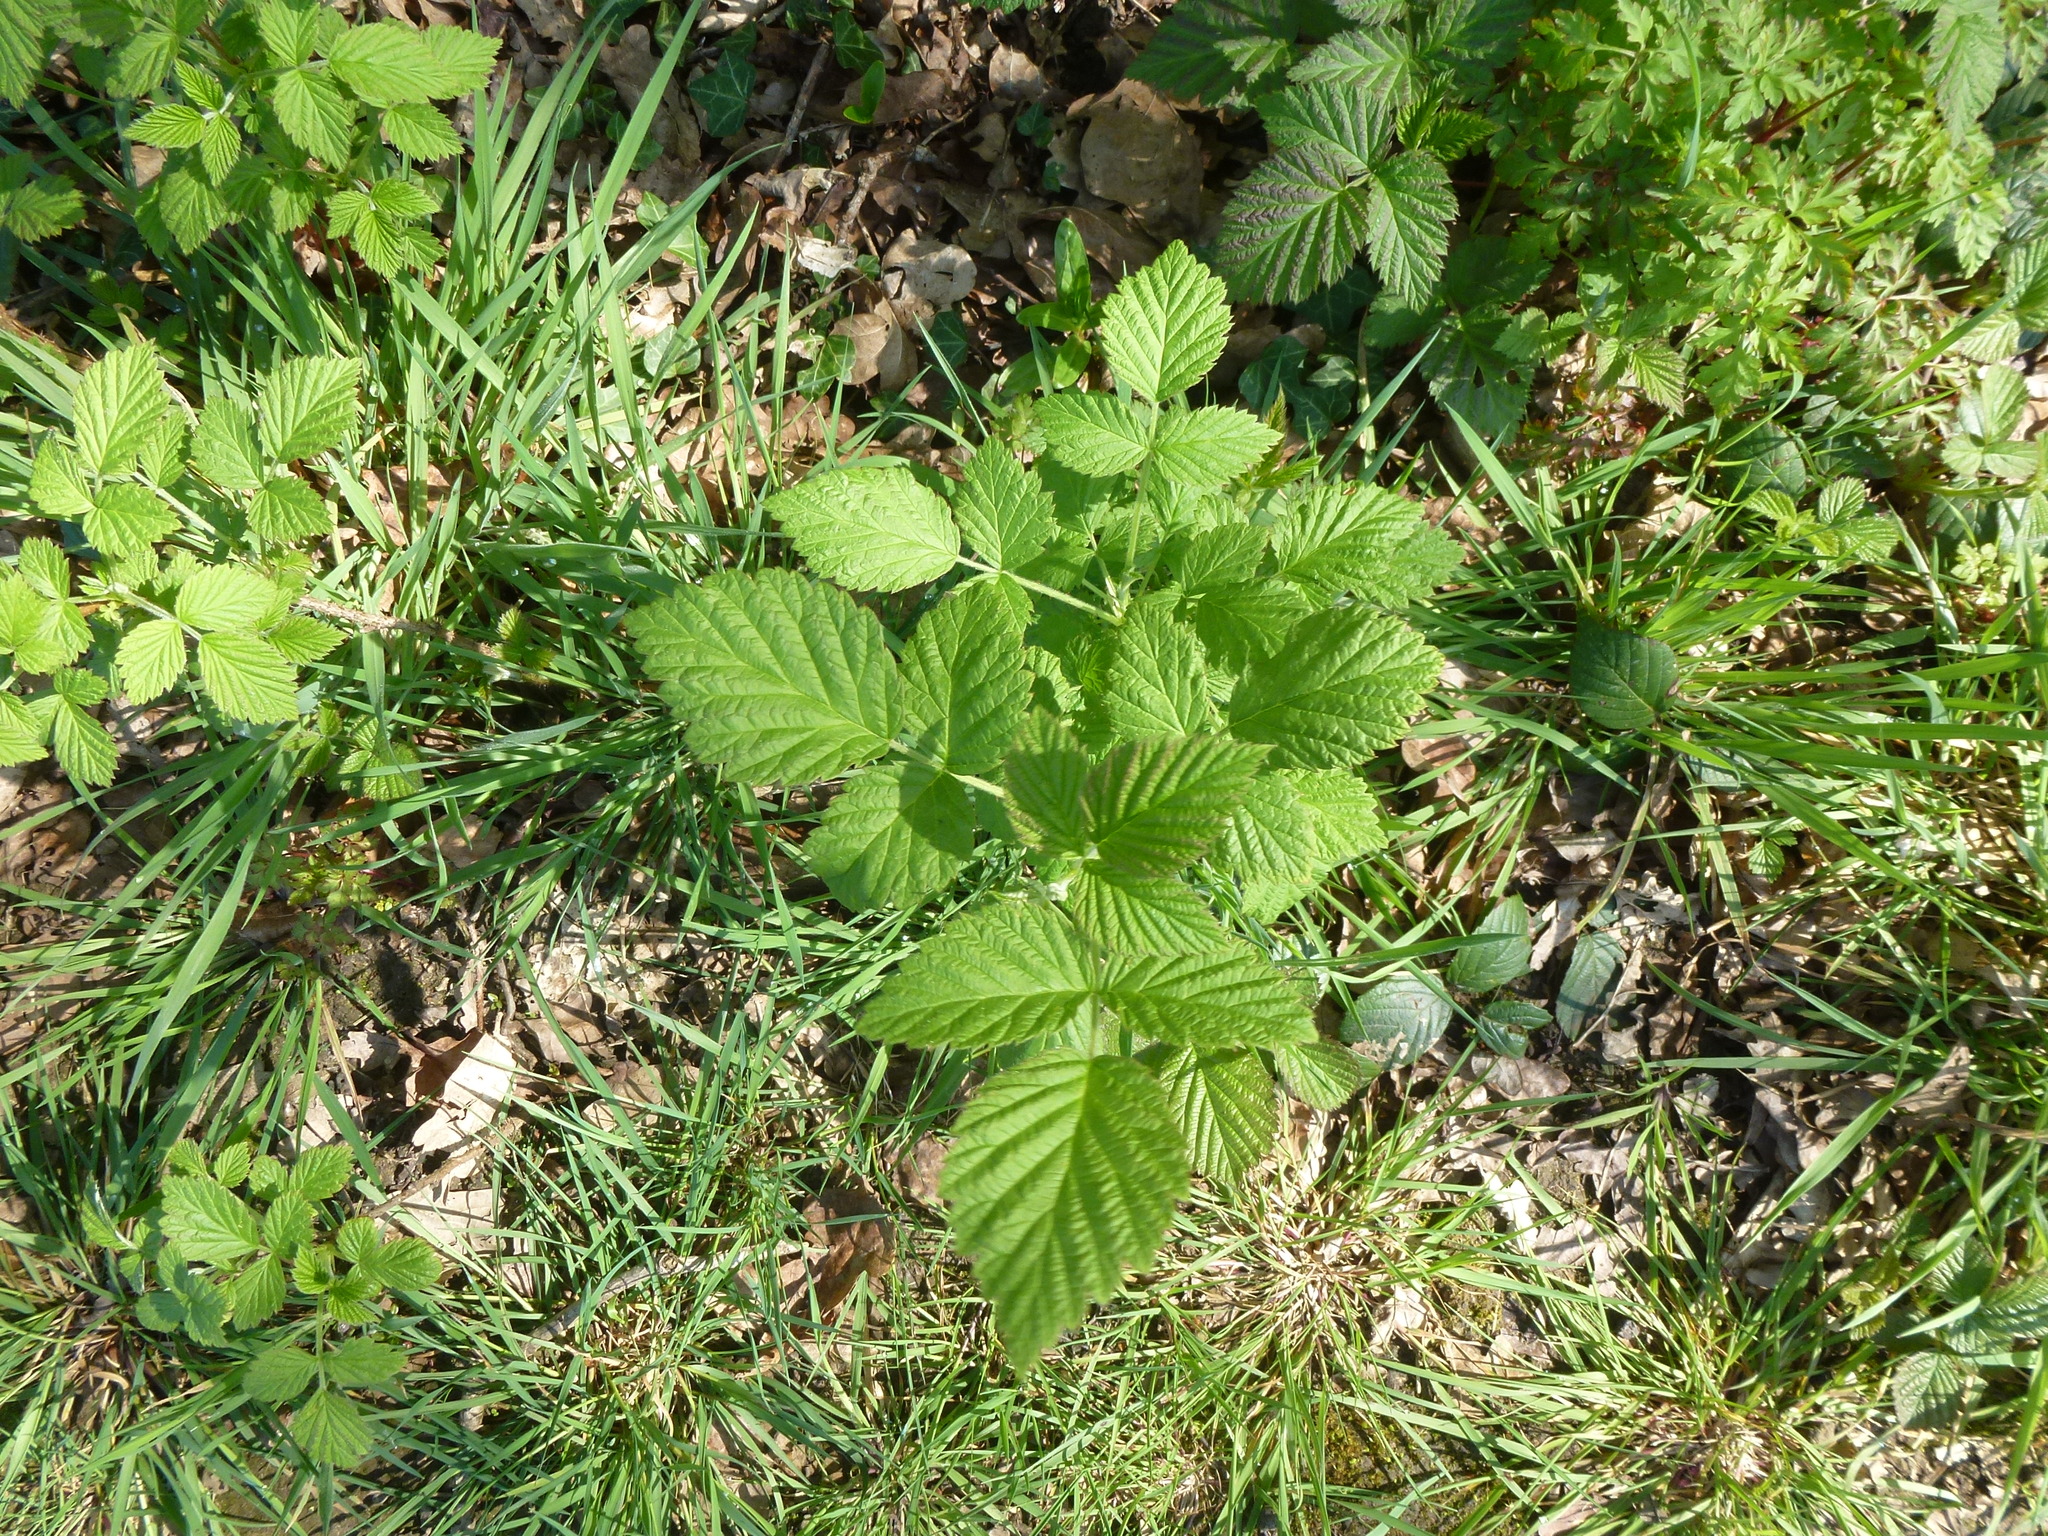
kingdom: Plantae
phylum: Tracheophyta
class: Magnoliopsida
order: Rosales
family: Rosaceae
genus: Rubus
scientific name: Rubus idaeus
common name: Raspberry
